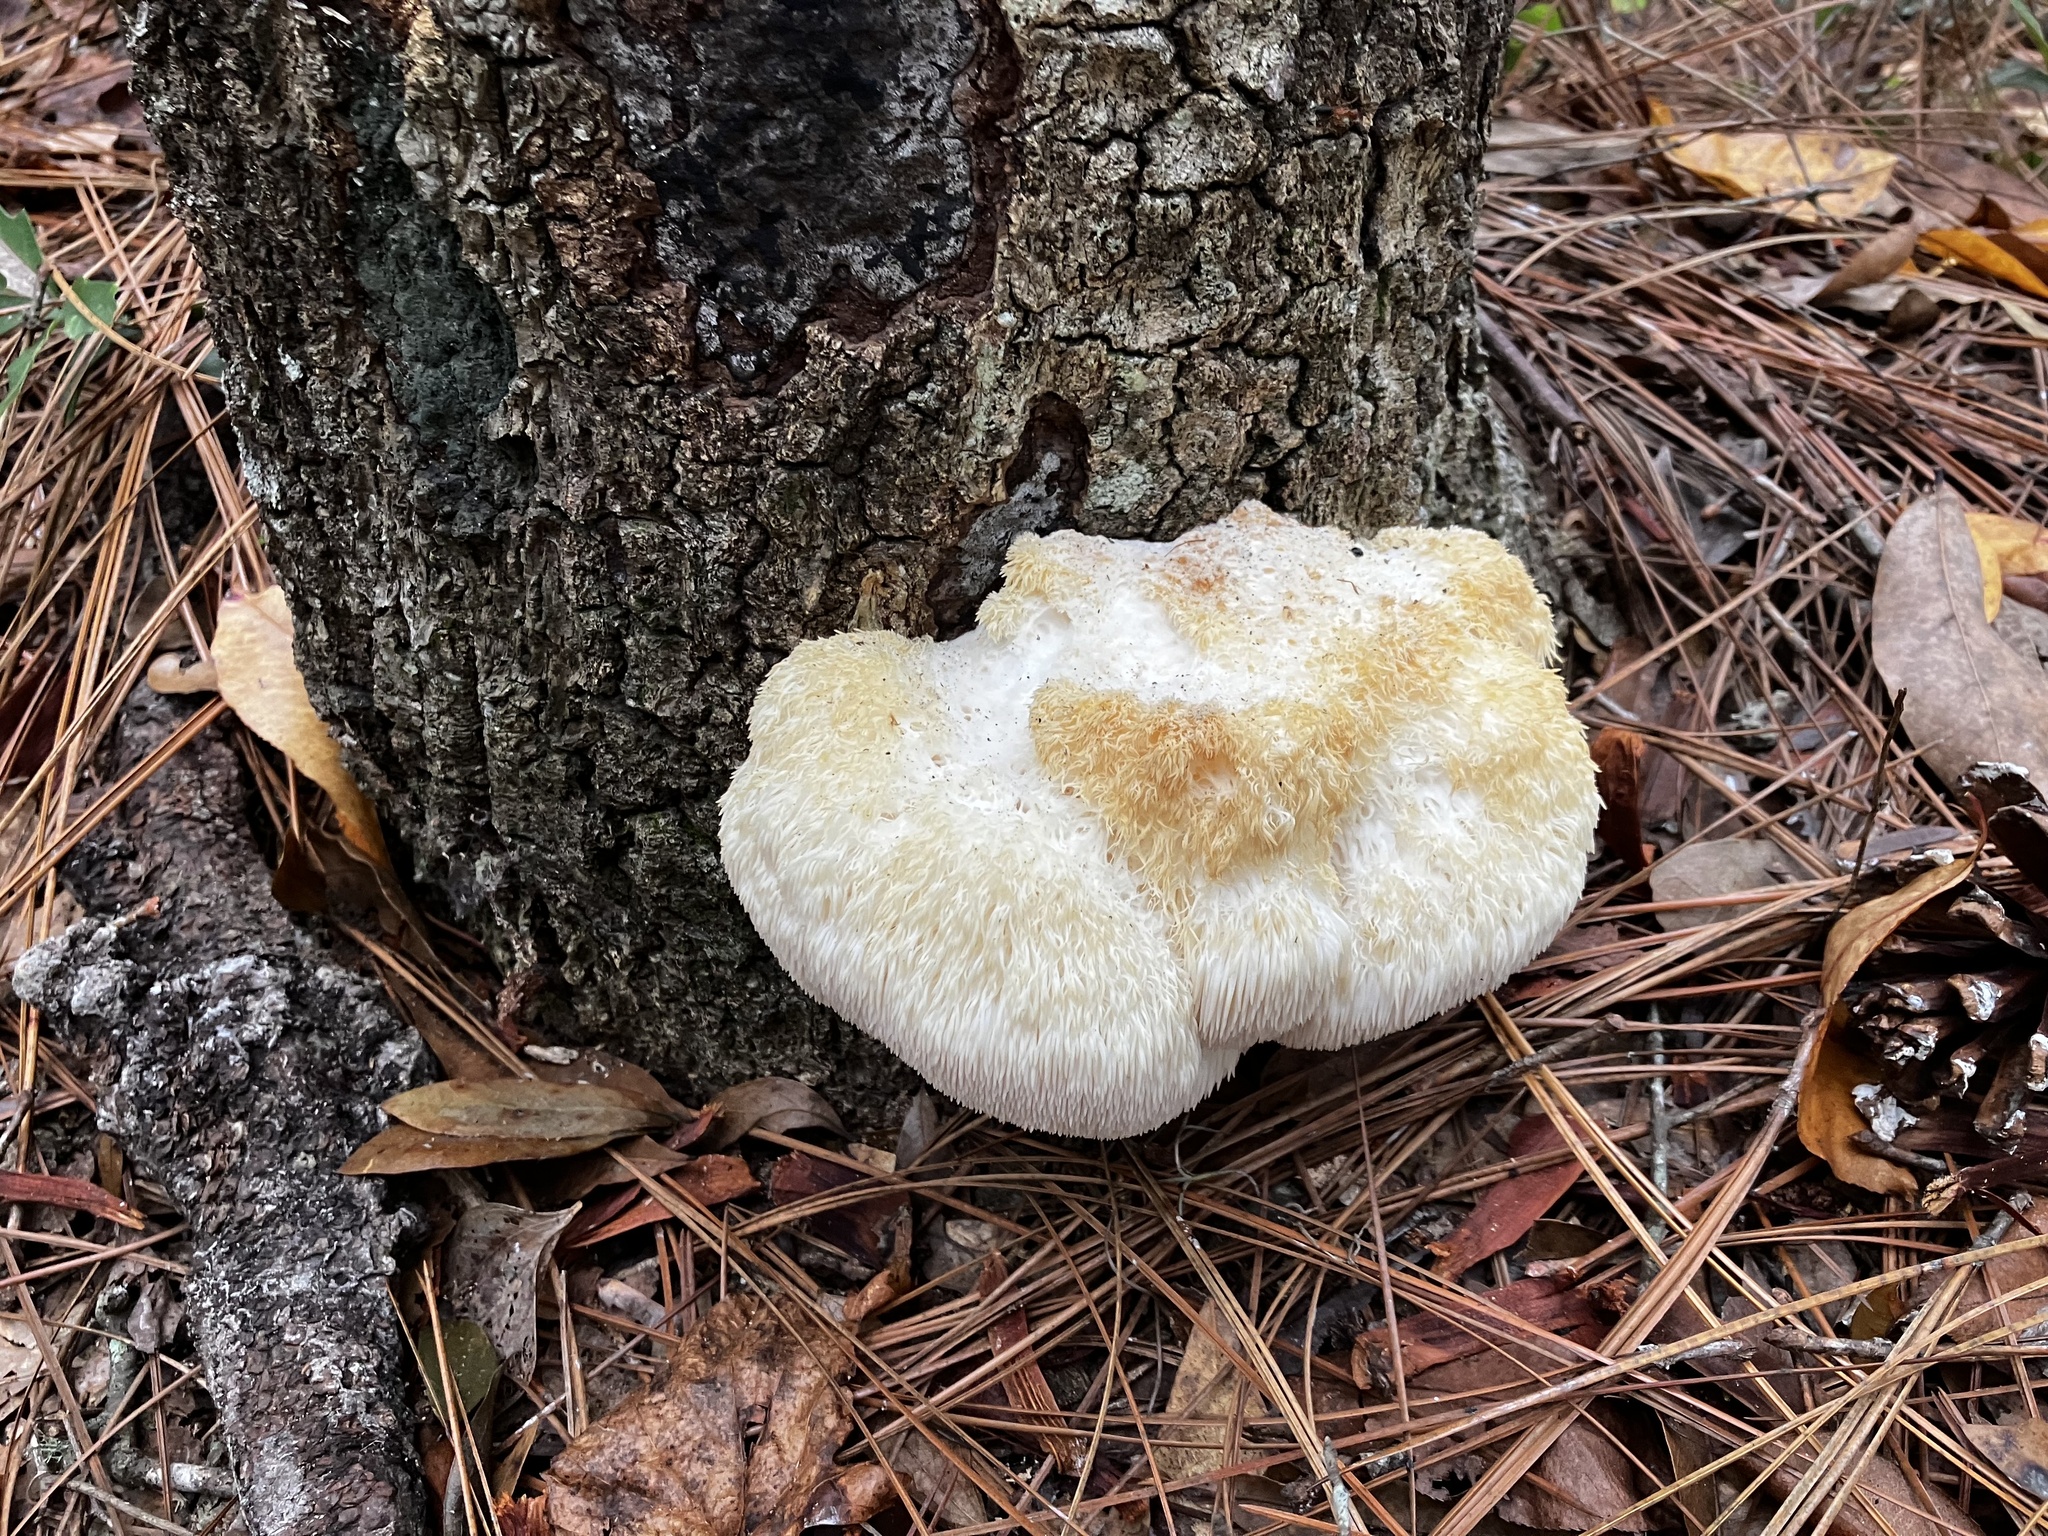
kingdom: Fungi
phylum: Basidiomycota
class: Agaricomycetes
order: Russulales
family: Hericiaceae
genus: Hericium
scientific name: Hericium erinaceus
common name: Bearded tooth
